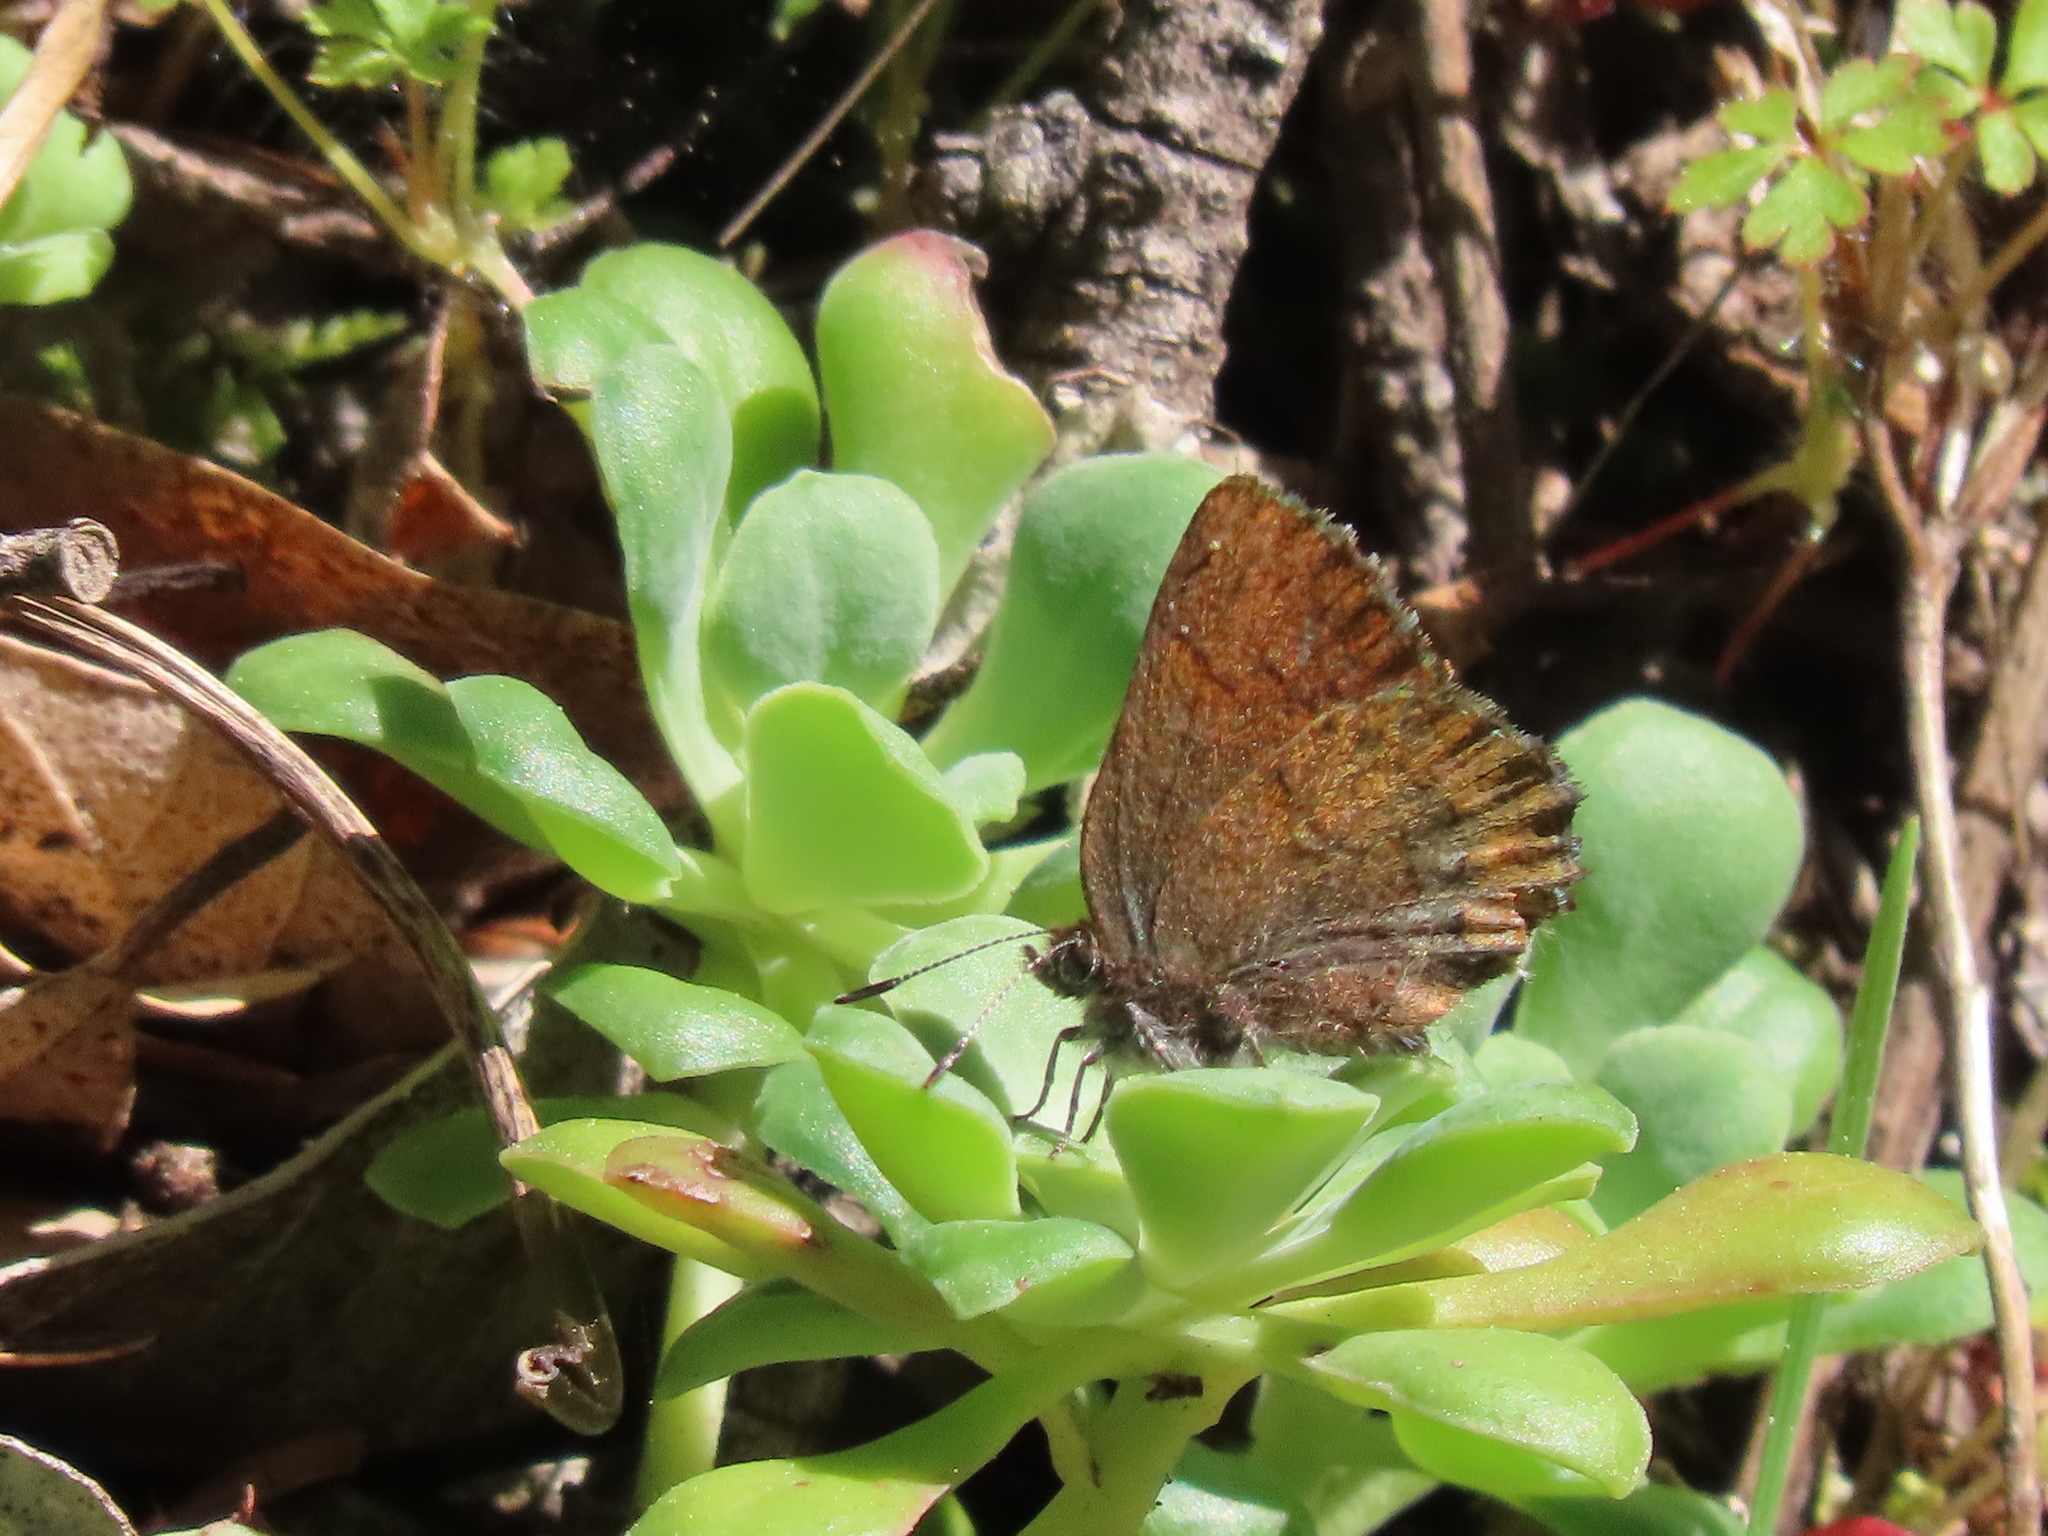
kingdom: Animalia
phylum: Arthropoda
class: Insecta
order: Lepidoptera
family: Lycaenidae
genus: Callophrys
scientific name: Callophrys mossii
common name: Moss' elfin
